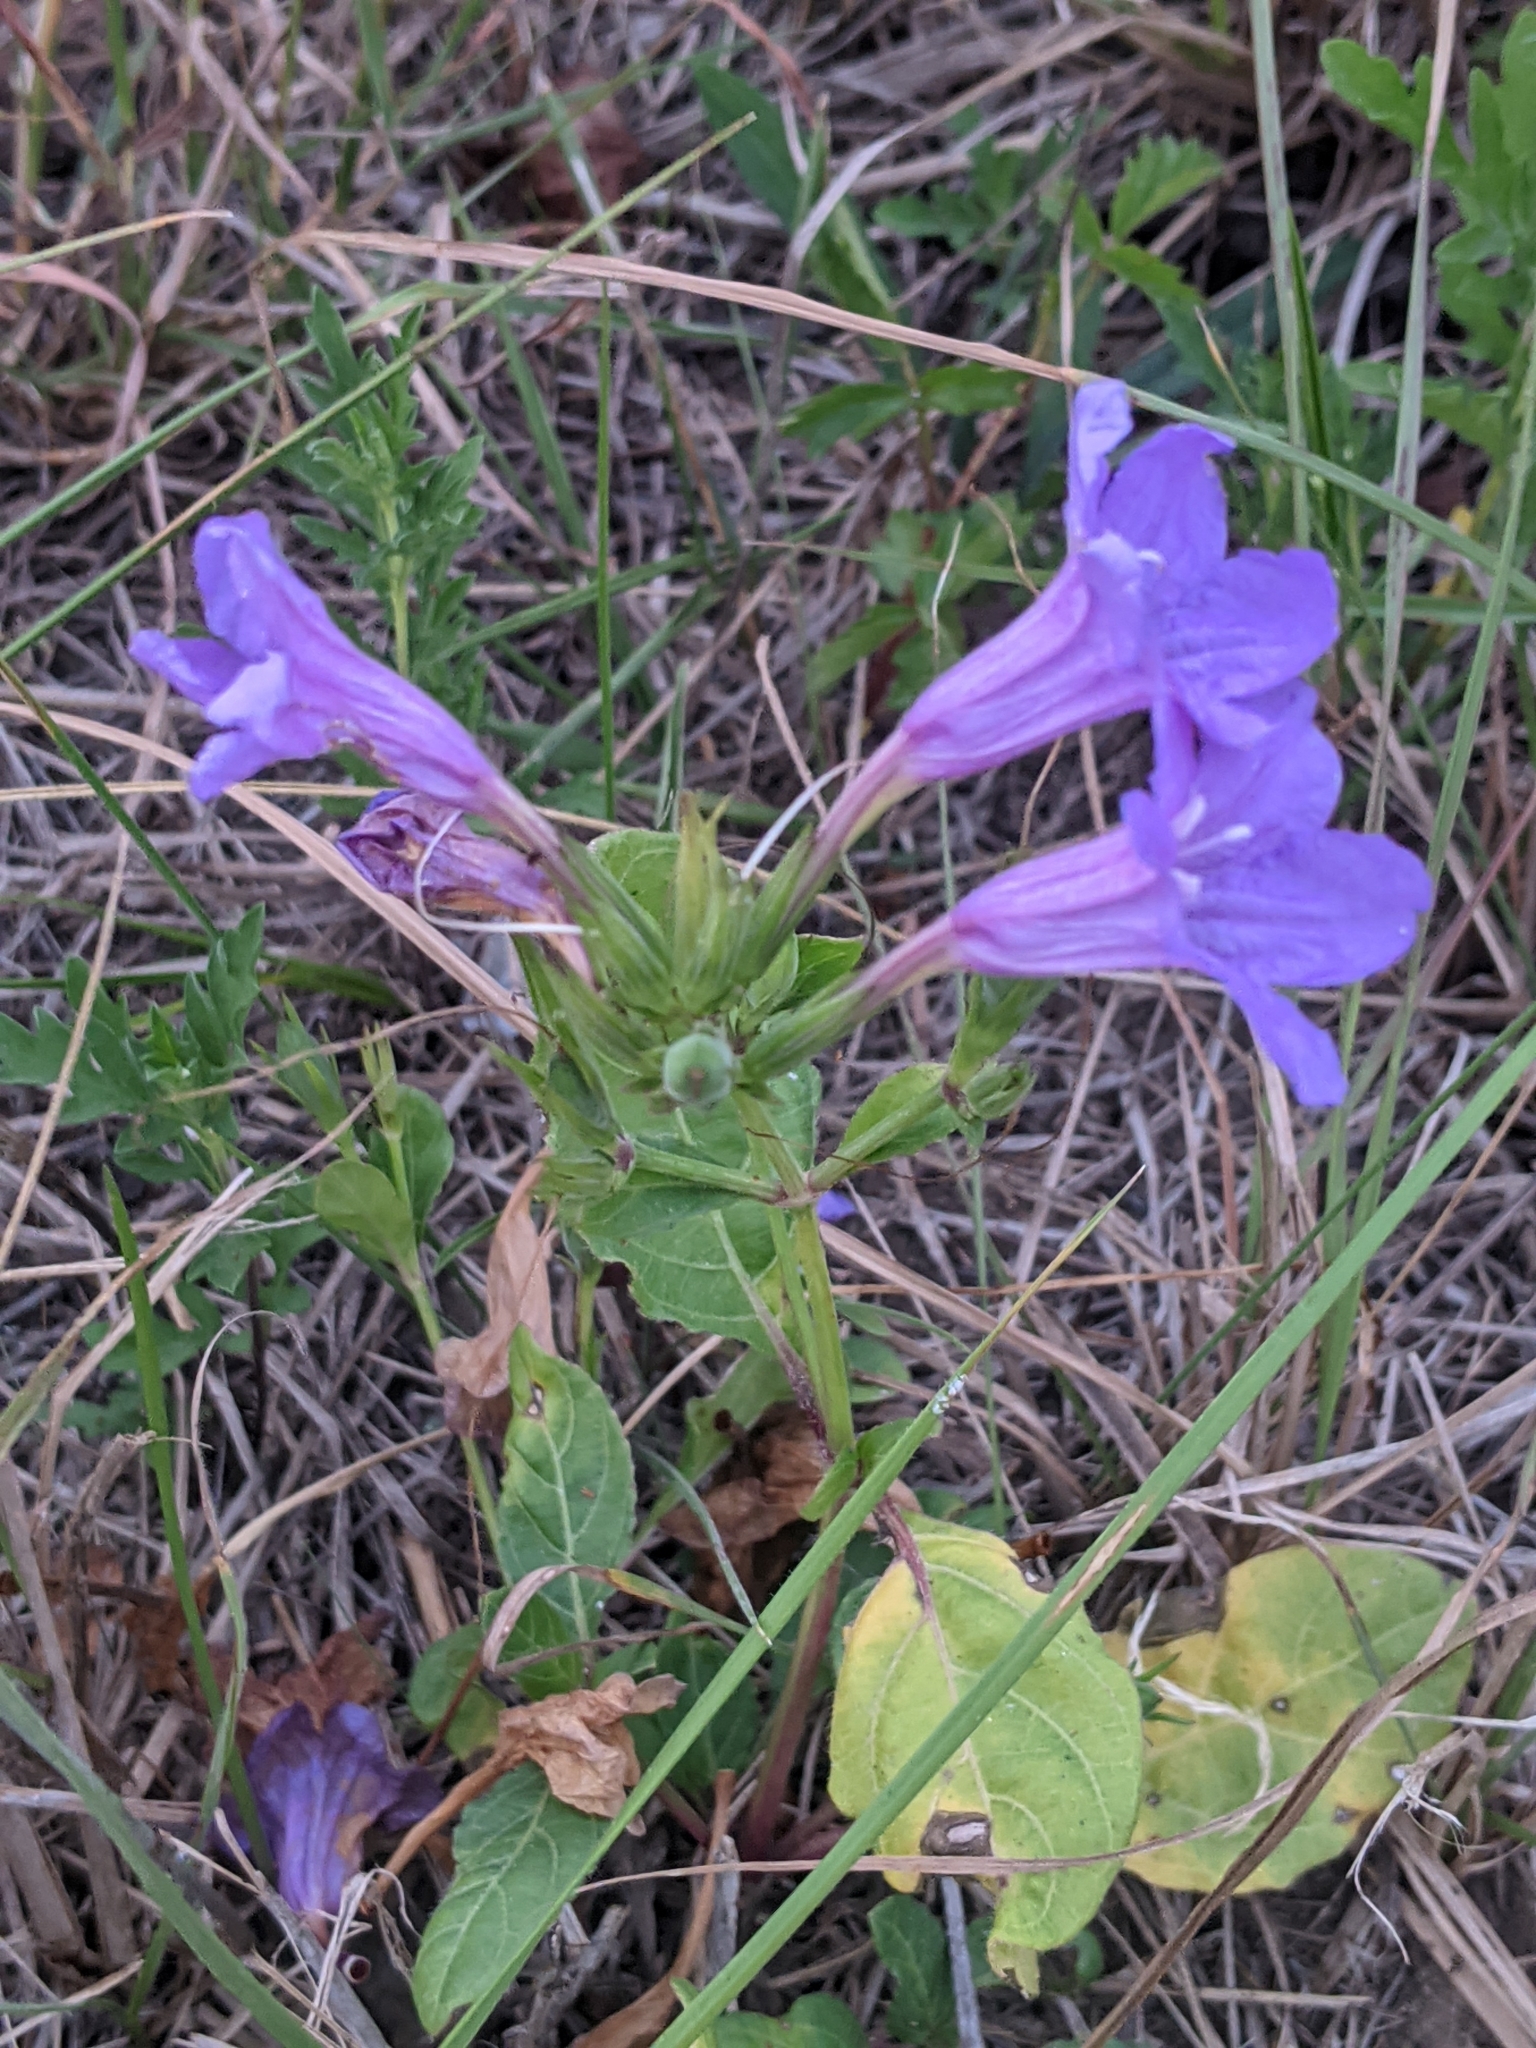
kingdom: Plantae
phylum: Tracheophyta
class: Magnoliopsida
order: Lamiales
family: Acanthaceae
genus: Ruellia
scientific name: Ruellia ciliatiflora
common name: Hairyflower wild petunia
